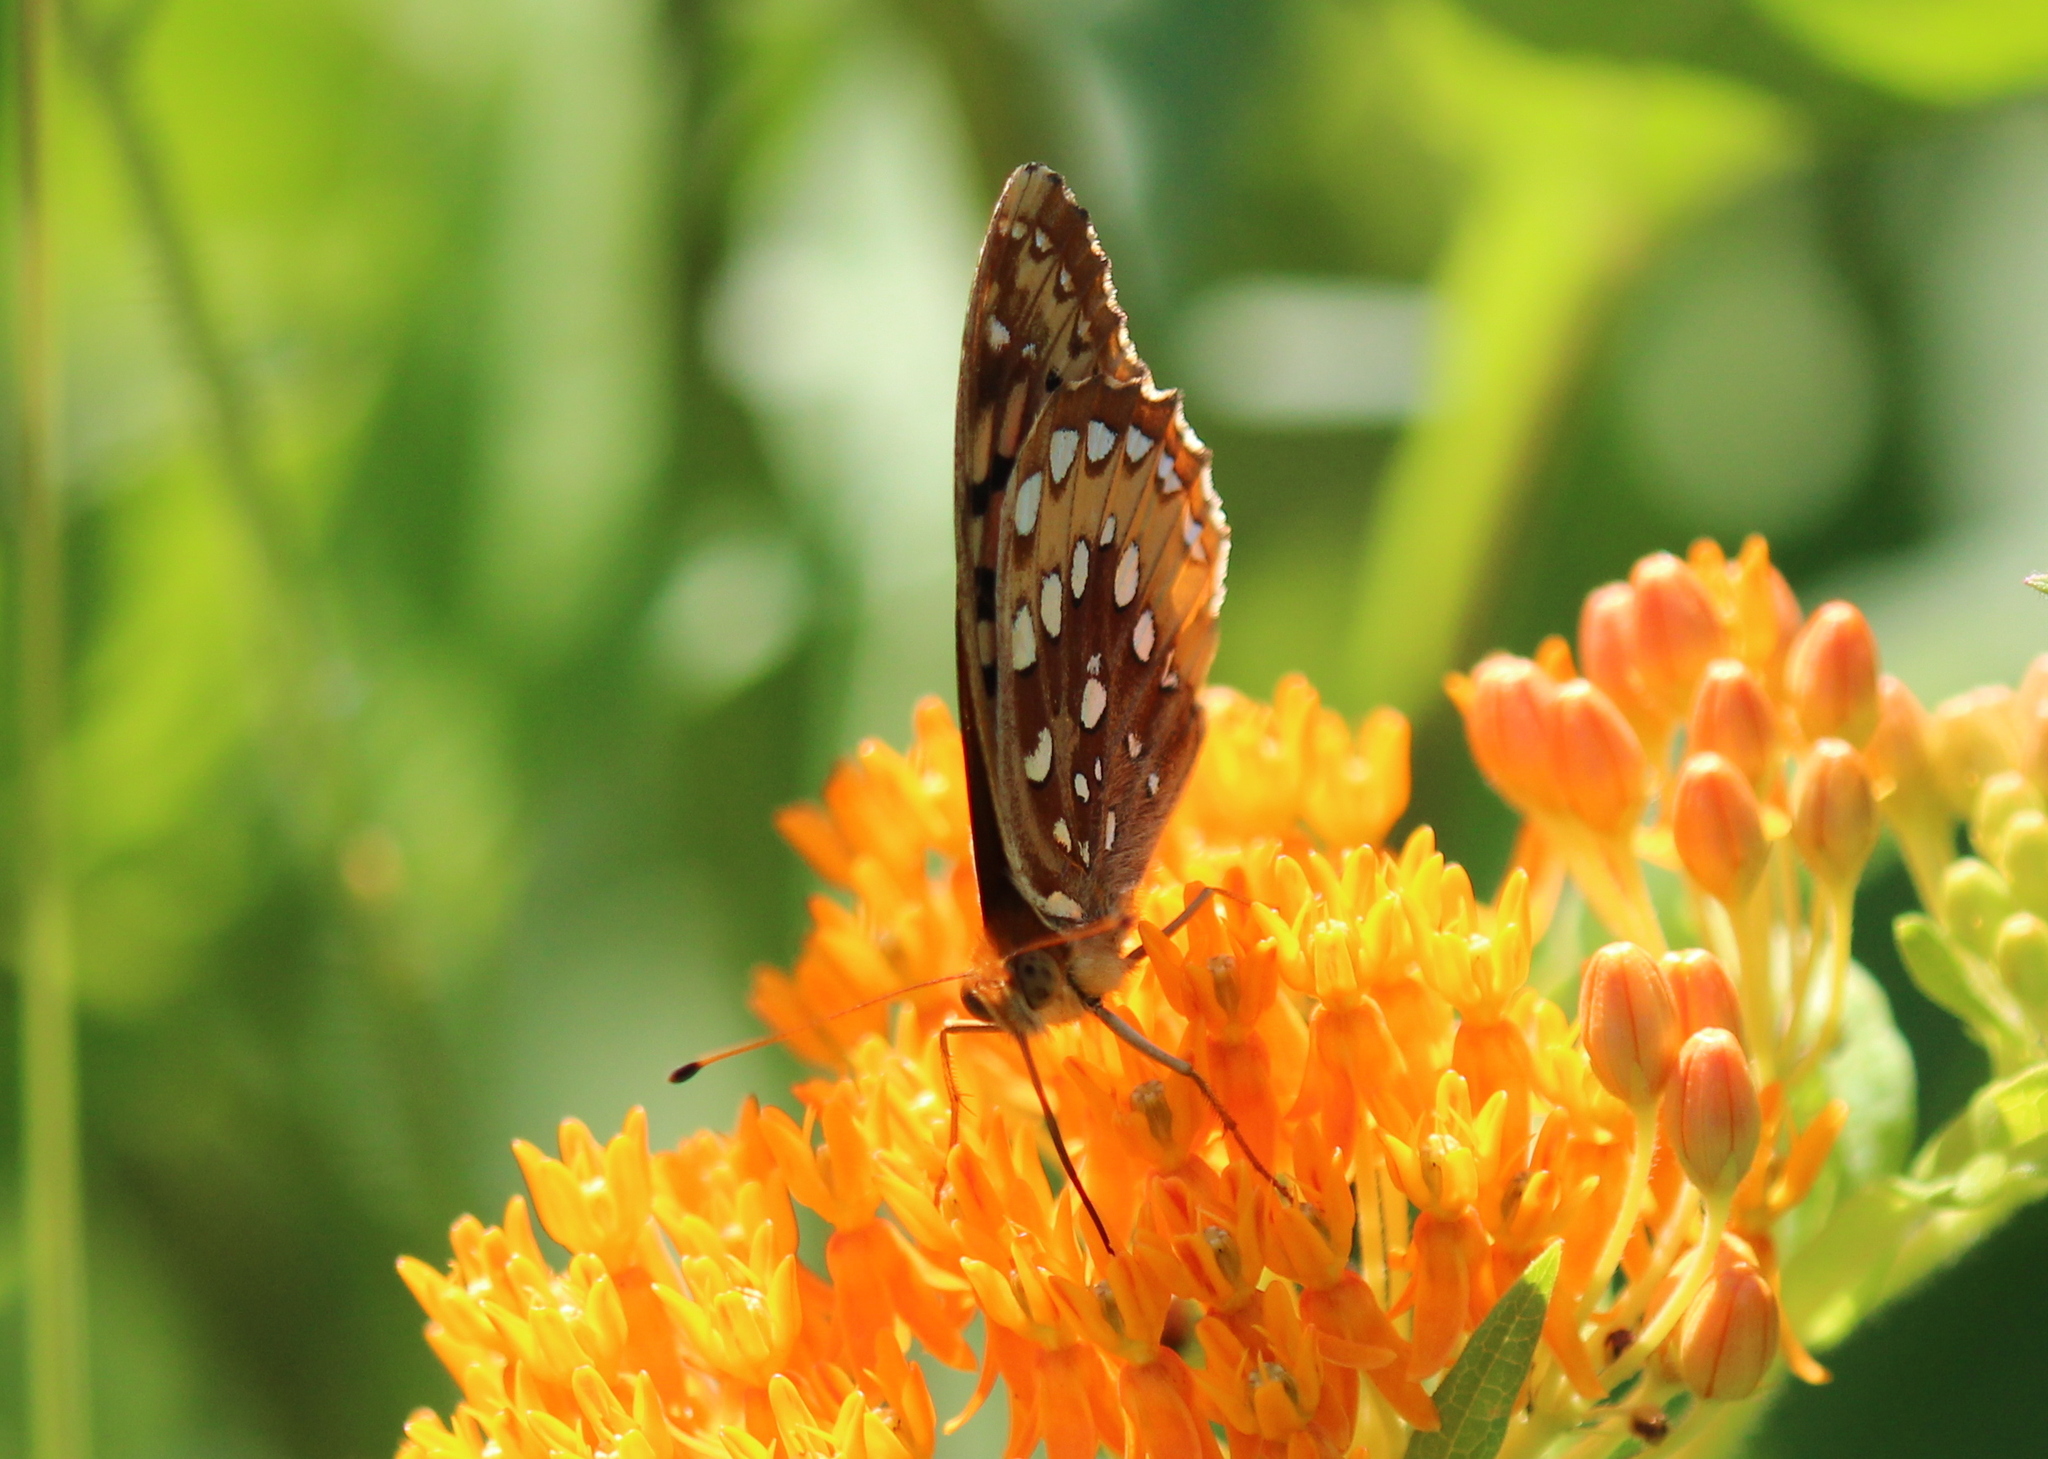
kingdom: Animalia
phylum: Arthropoda
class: Insecta
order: Lepidoptera
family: Nymphalidae
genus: Speyeria
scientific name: Speyeria cybele
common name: Great spangled fritillary
